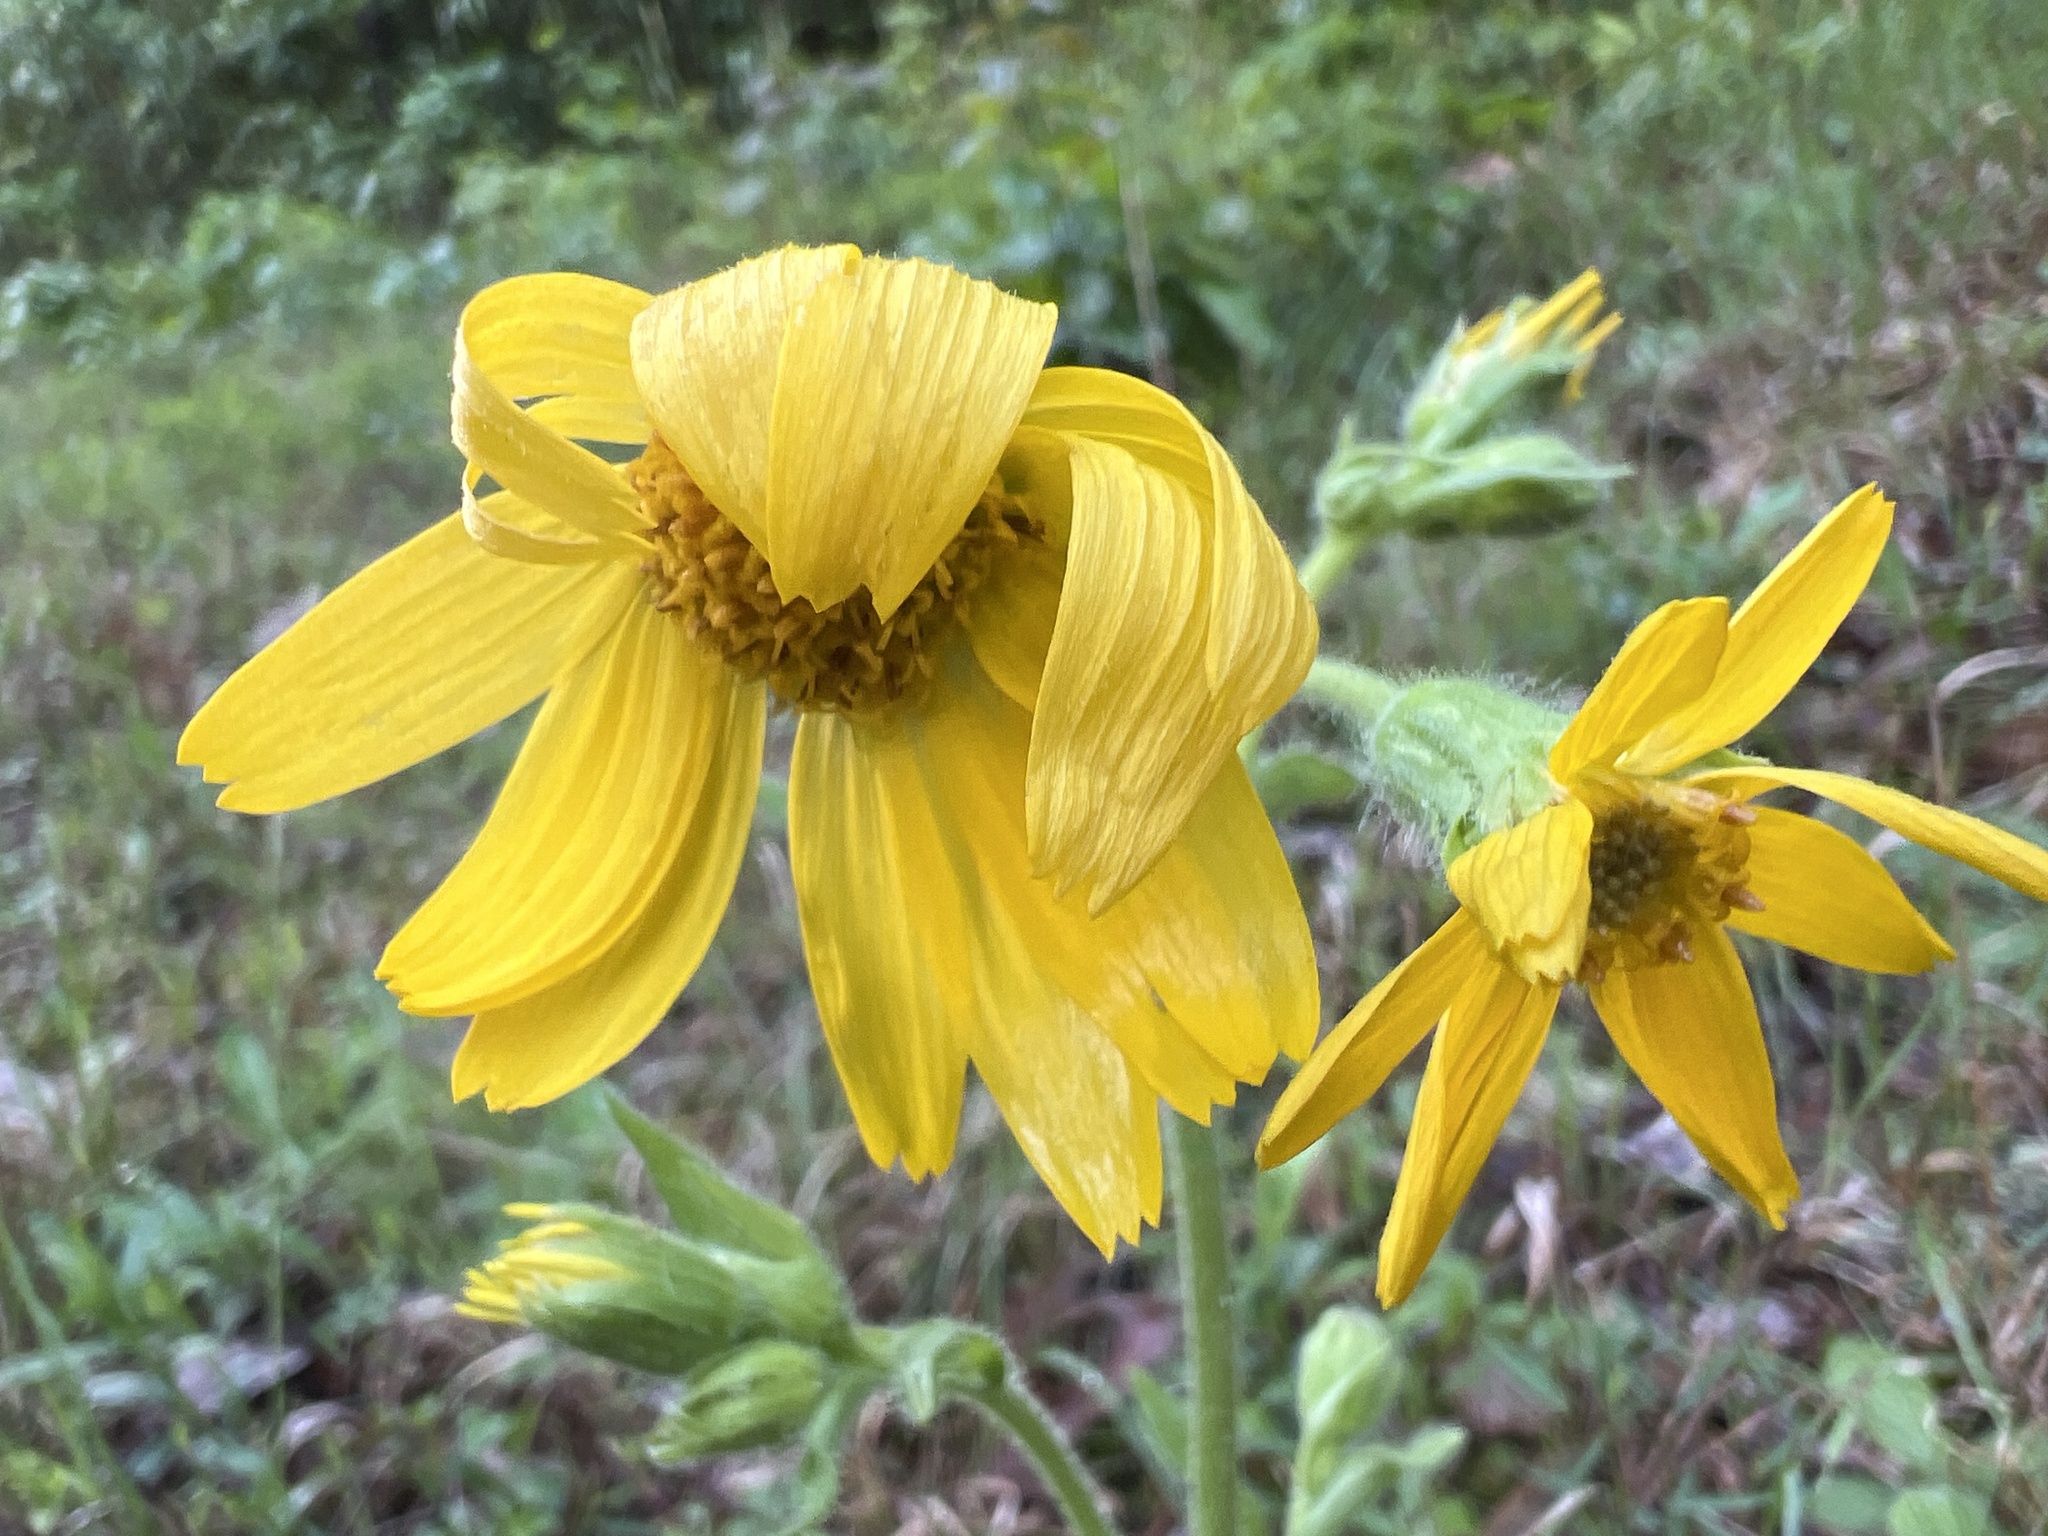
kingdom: Plantae
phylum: Tracheophyta
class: Magnoliopsida
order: Asterales
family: Asteraceae
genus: Arnica
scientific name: Arnica acaulis
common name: Common leopardbane
